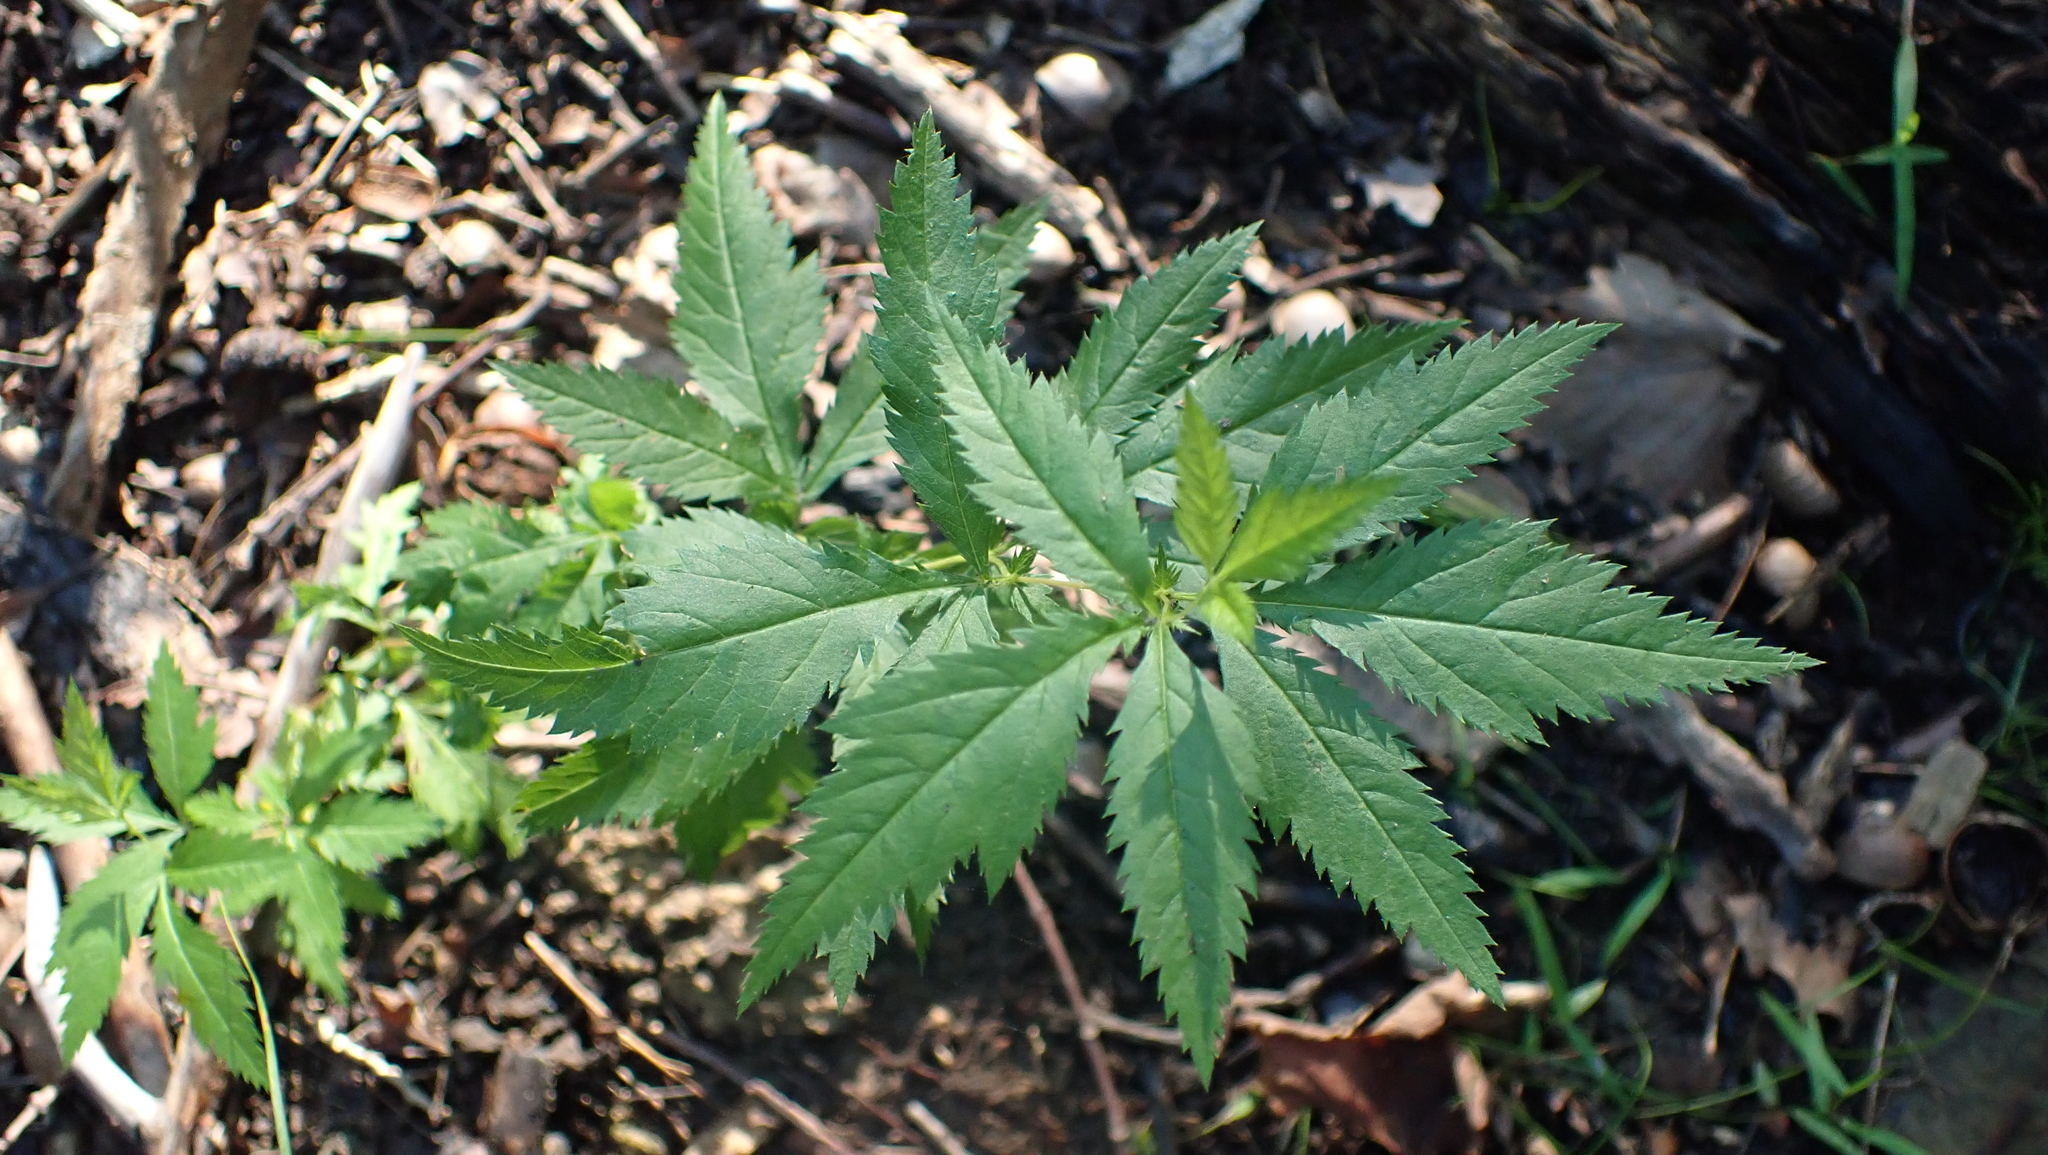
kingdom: Plantae
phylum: Tracheophyta
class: Magnoliopsida
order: Rosales
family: Rosaceae
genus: Gillenia
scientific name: Gillenia stipulata
